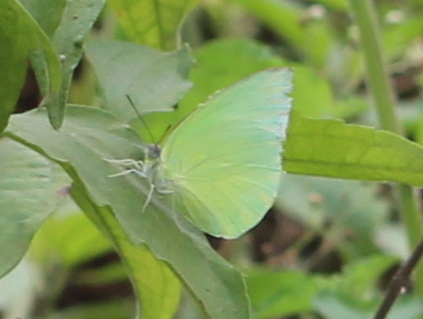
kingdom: Animalia
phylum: Arthropoda
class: Insecta
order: Lepidoptera
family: Pieridae
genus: Catopsilia
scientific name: Catopsilia pomona
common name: Common emigrant
